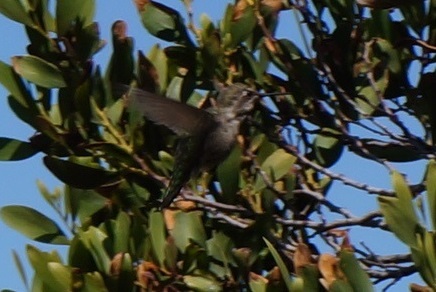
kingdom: Animalia
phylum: Chordata
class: Aves
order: Apodiformes
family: Trochilidae
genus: Calypte
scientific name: Calypte anna
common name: Anna's hummingbird
